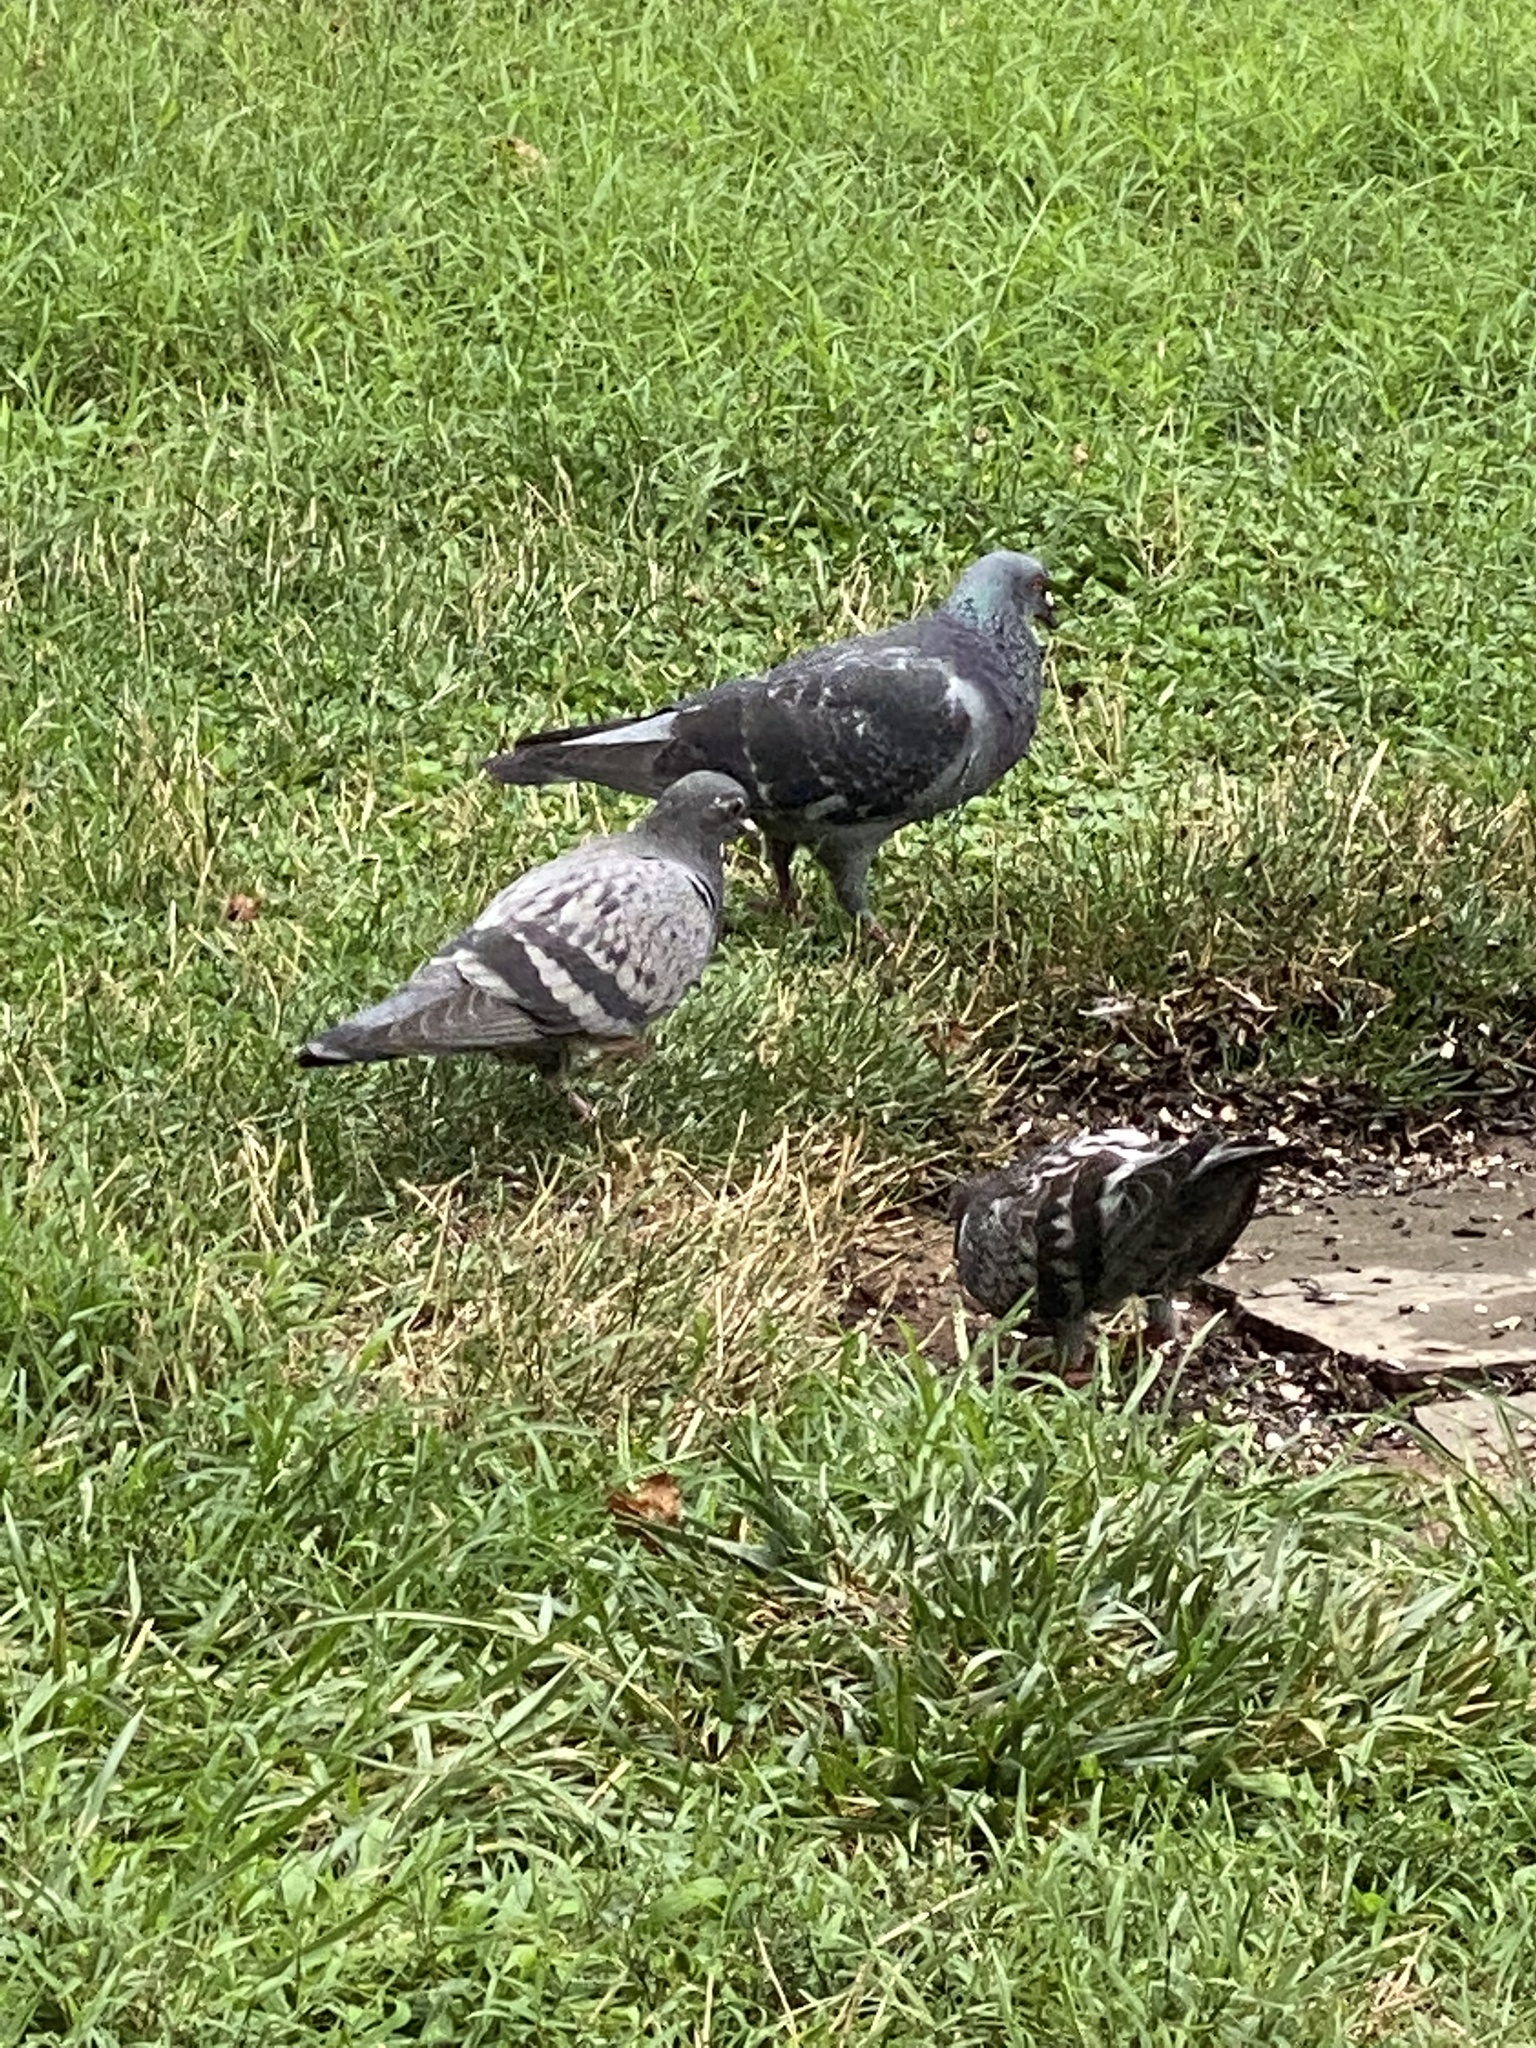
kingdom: Animalia
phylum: Chordata
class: Aves
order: Columbiformes
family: Columbidae
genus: Columba
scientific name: Columba livia
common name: Rock pigeon
